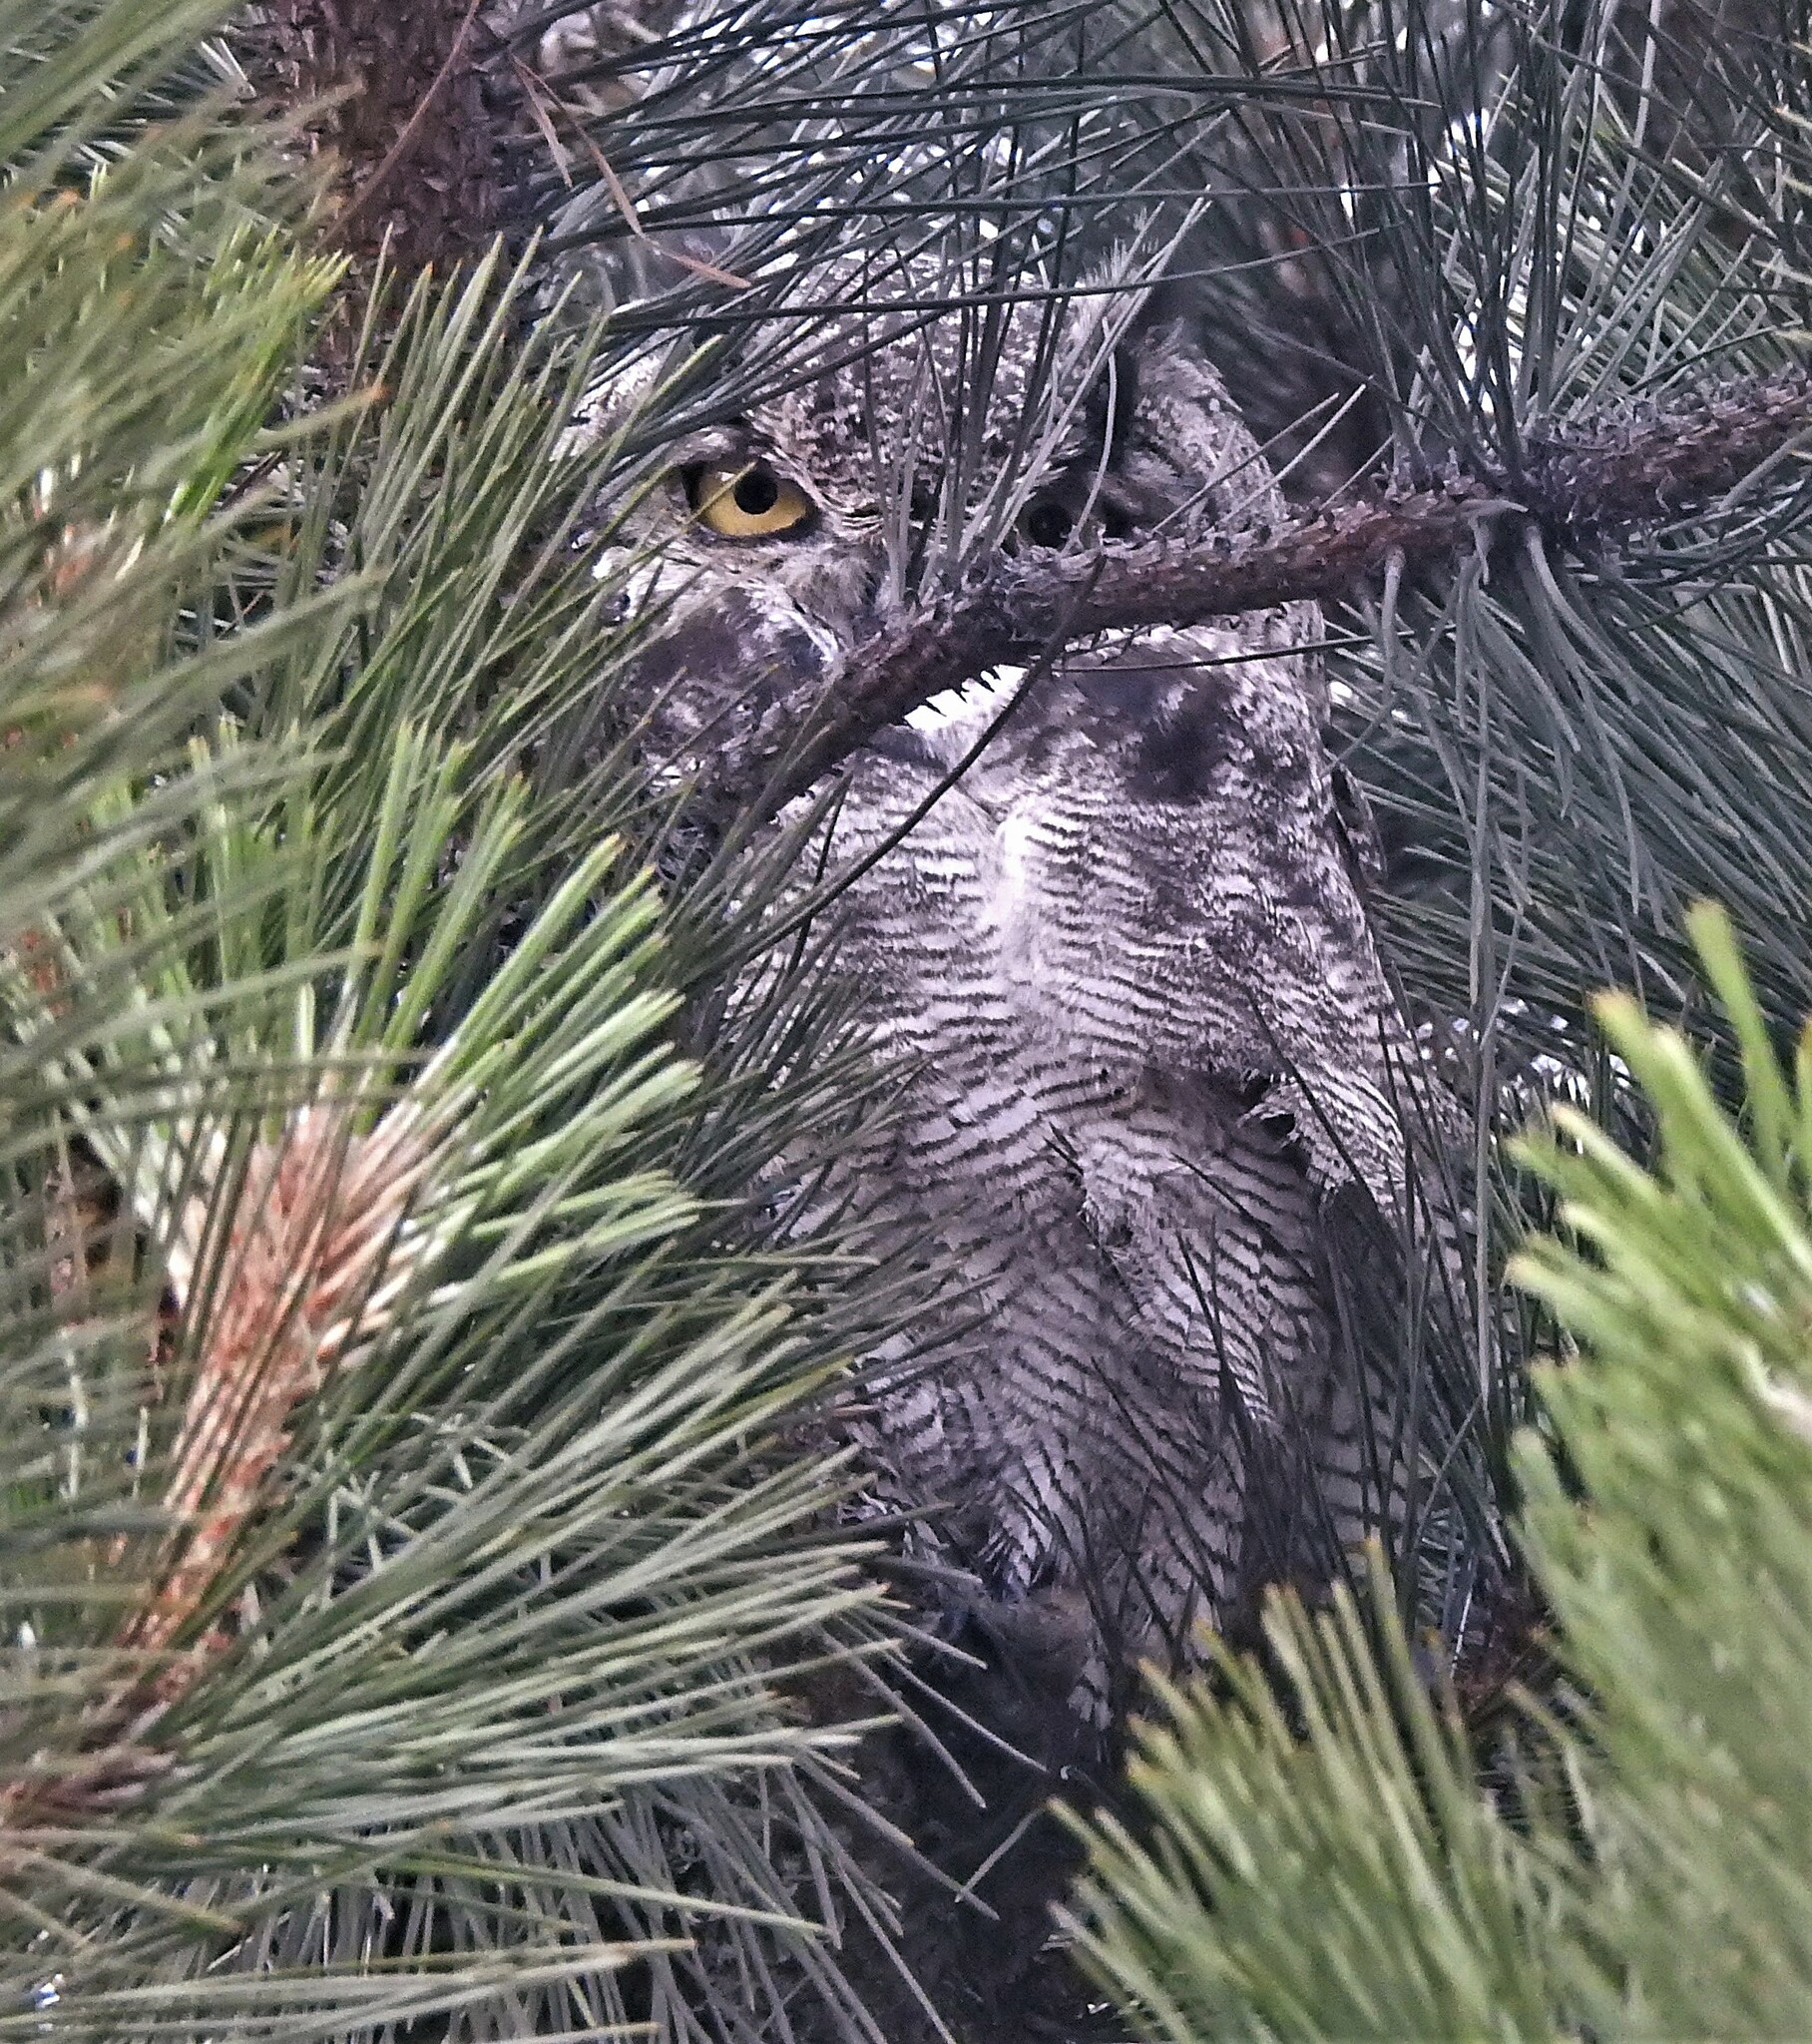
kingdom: Animalia
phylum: Chordata
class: Aves
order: Strigiformes
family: Strigidae
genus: Bubo
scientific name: Bubo magellanicus
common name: Lesser horned owl
